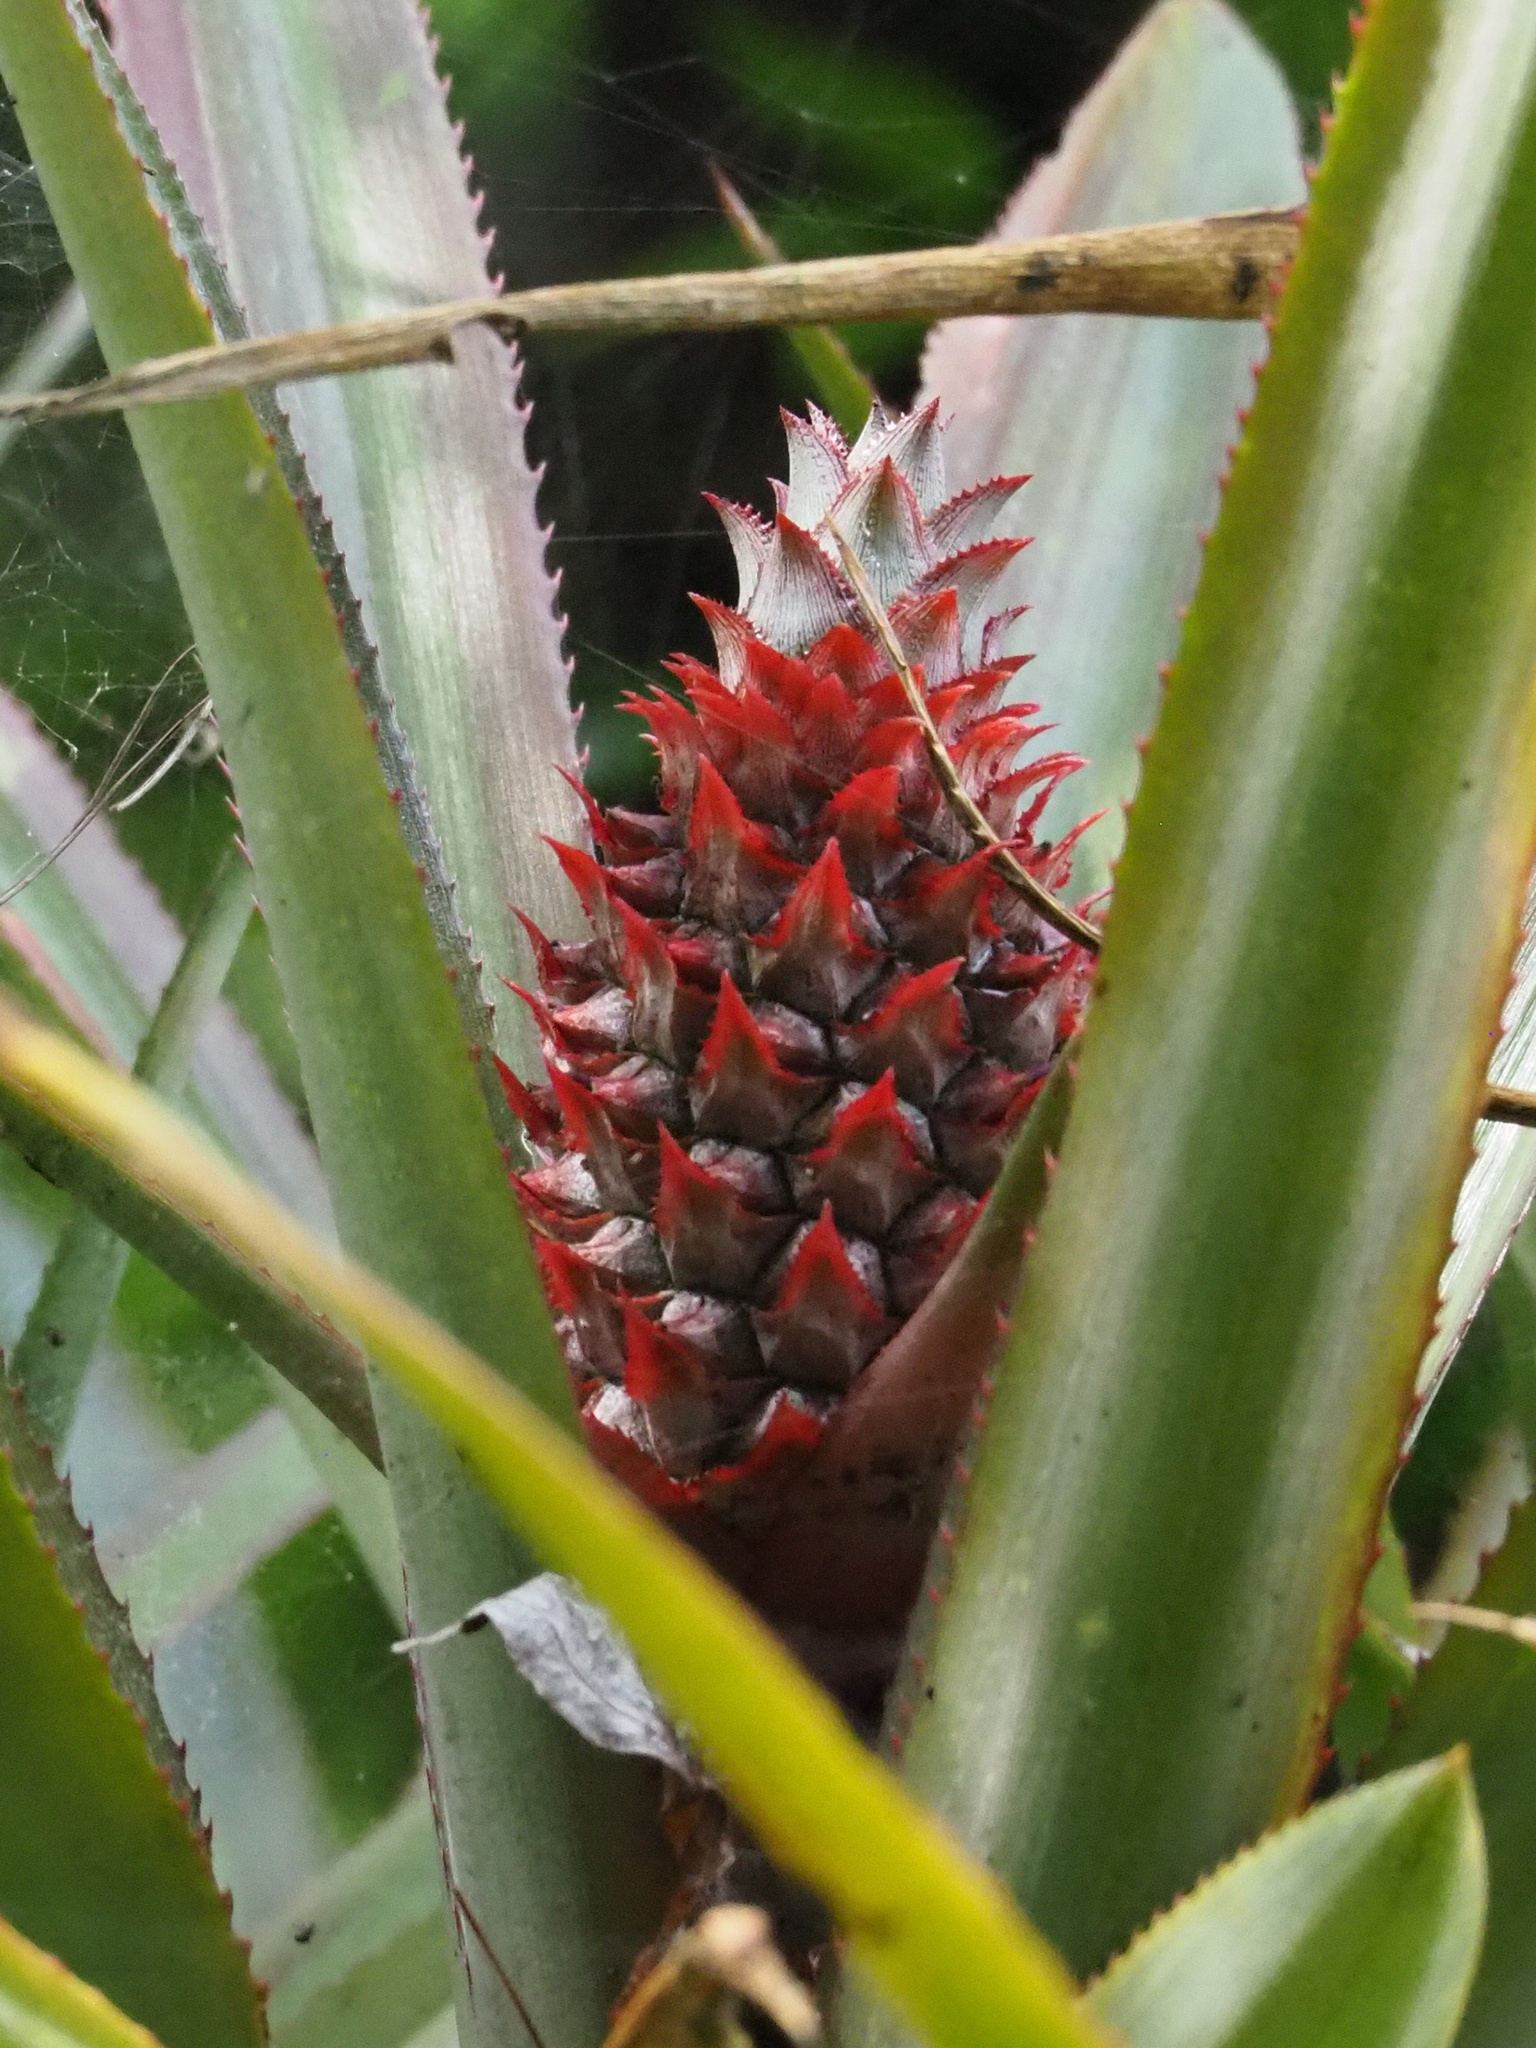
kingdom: Plantae
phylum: Tracheophyta
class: Liliopsida
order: Poales
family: Bromeliaceae
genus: Ananas
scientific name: Ananas comosus
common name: Pineapple
